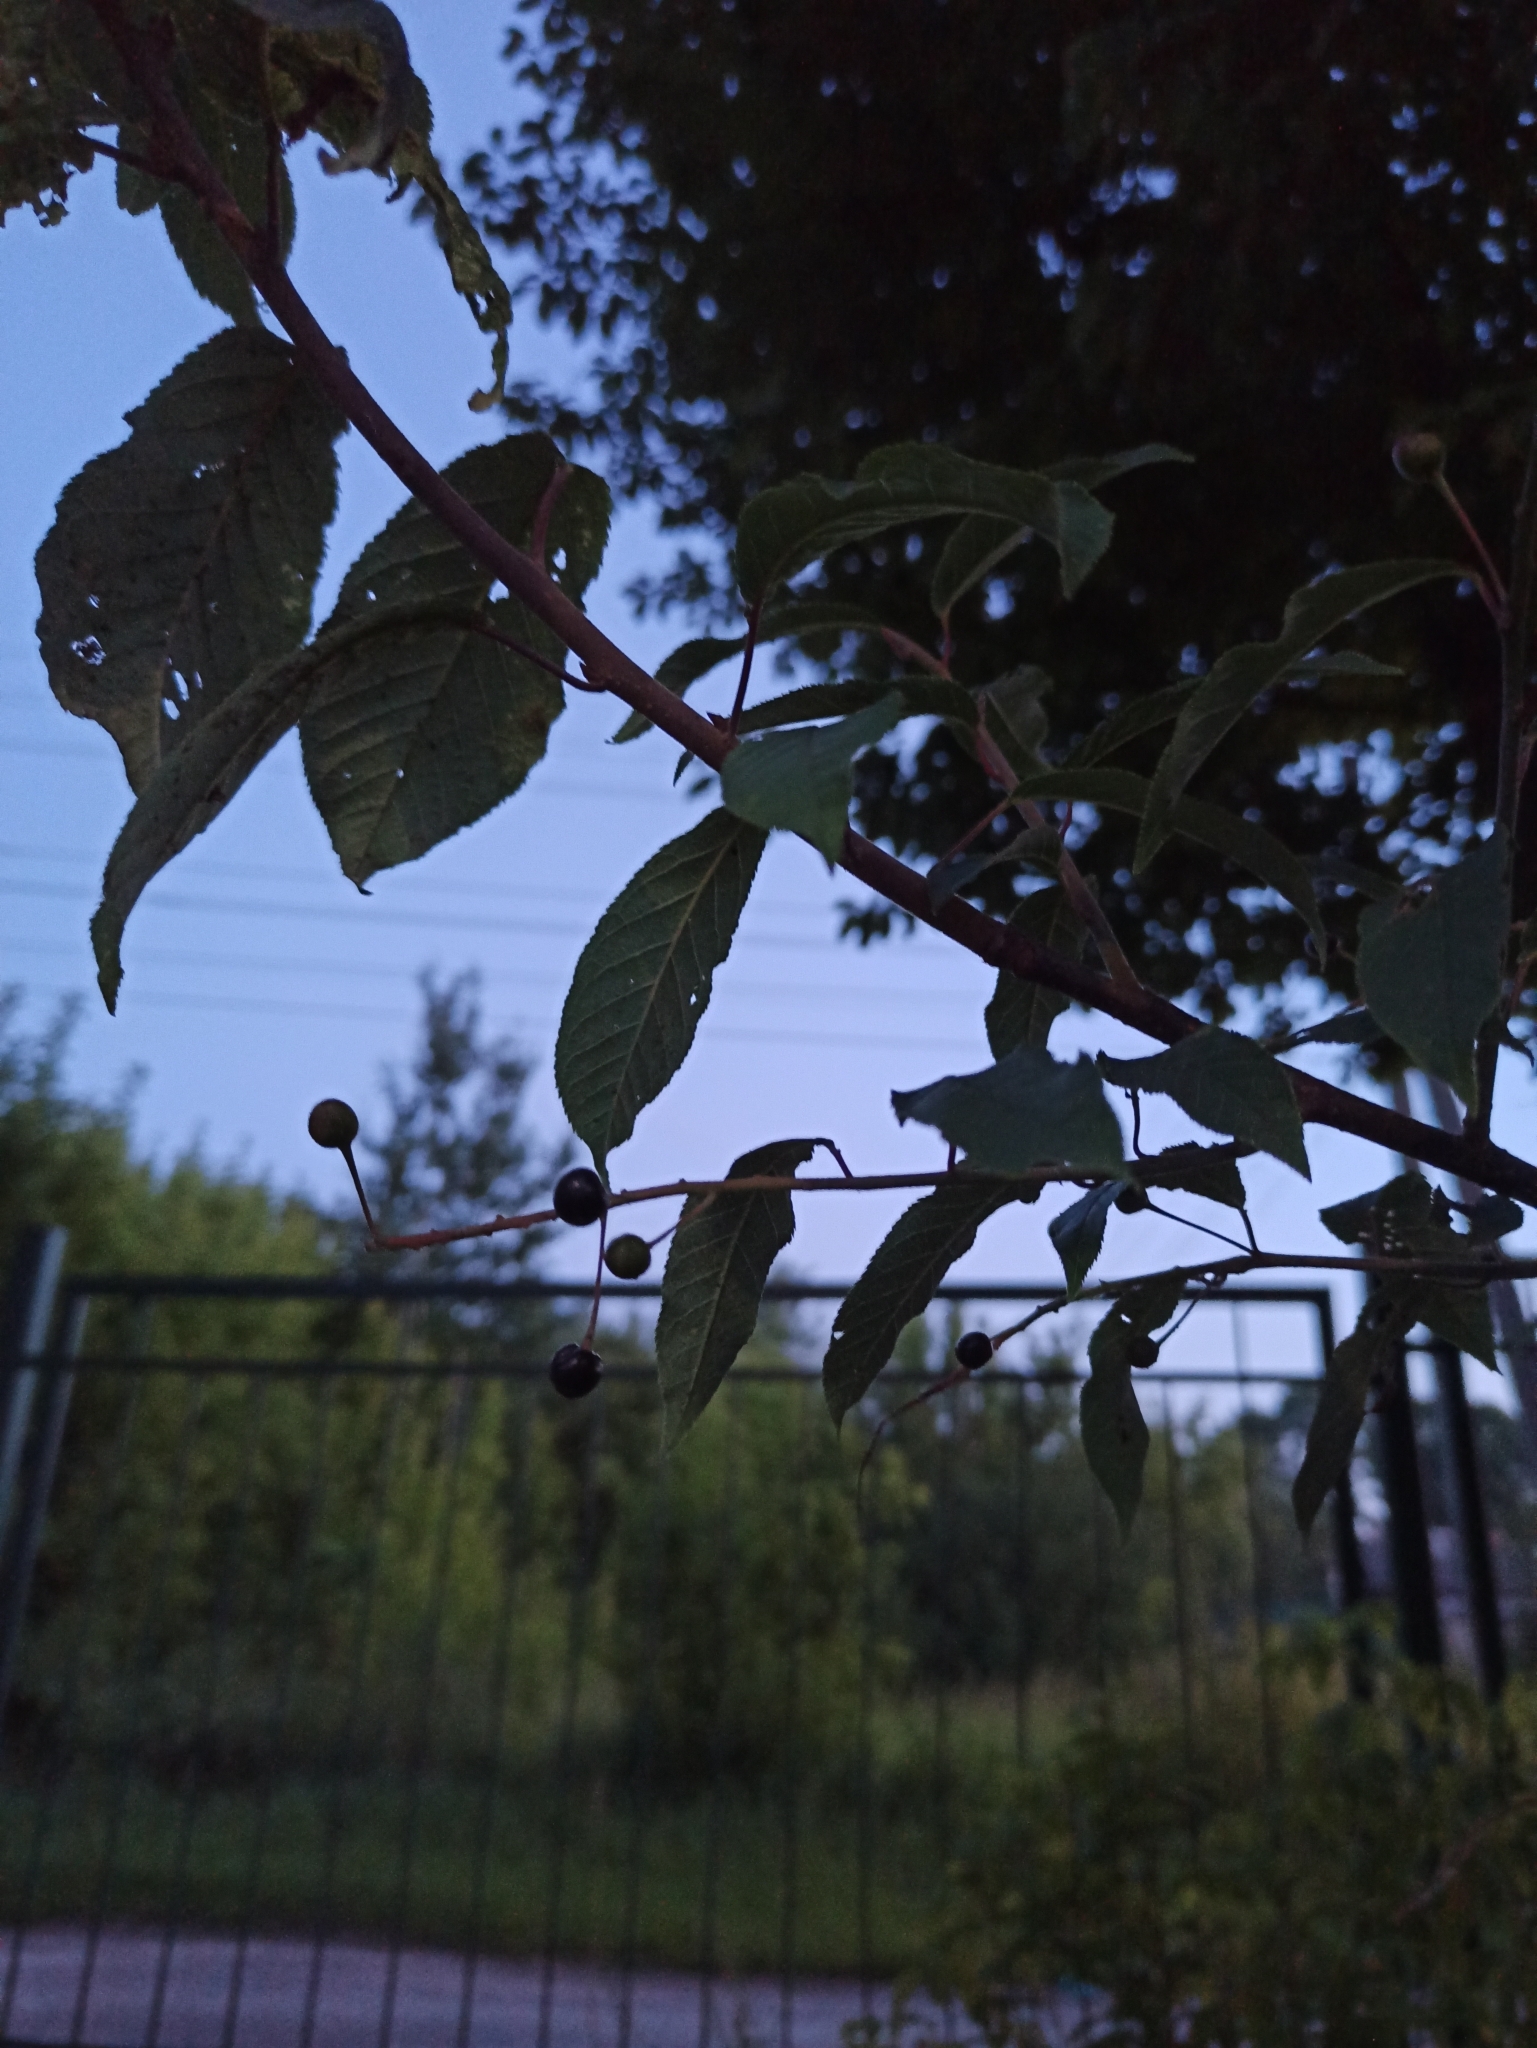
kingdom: Plantae
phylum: Tracheophyta
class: Magnoliopsida
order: Rosales
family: Rosaceae
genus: Prunus
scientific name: Prunus padus
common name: Bird cherry
